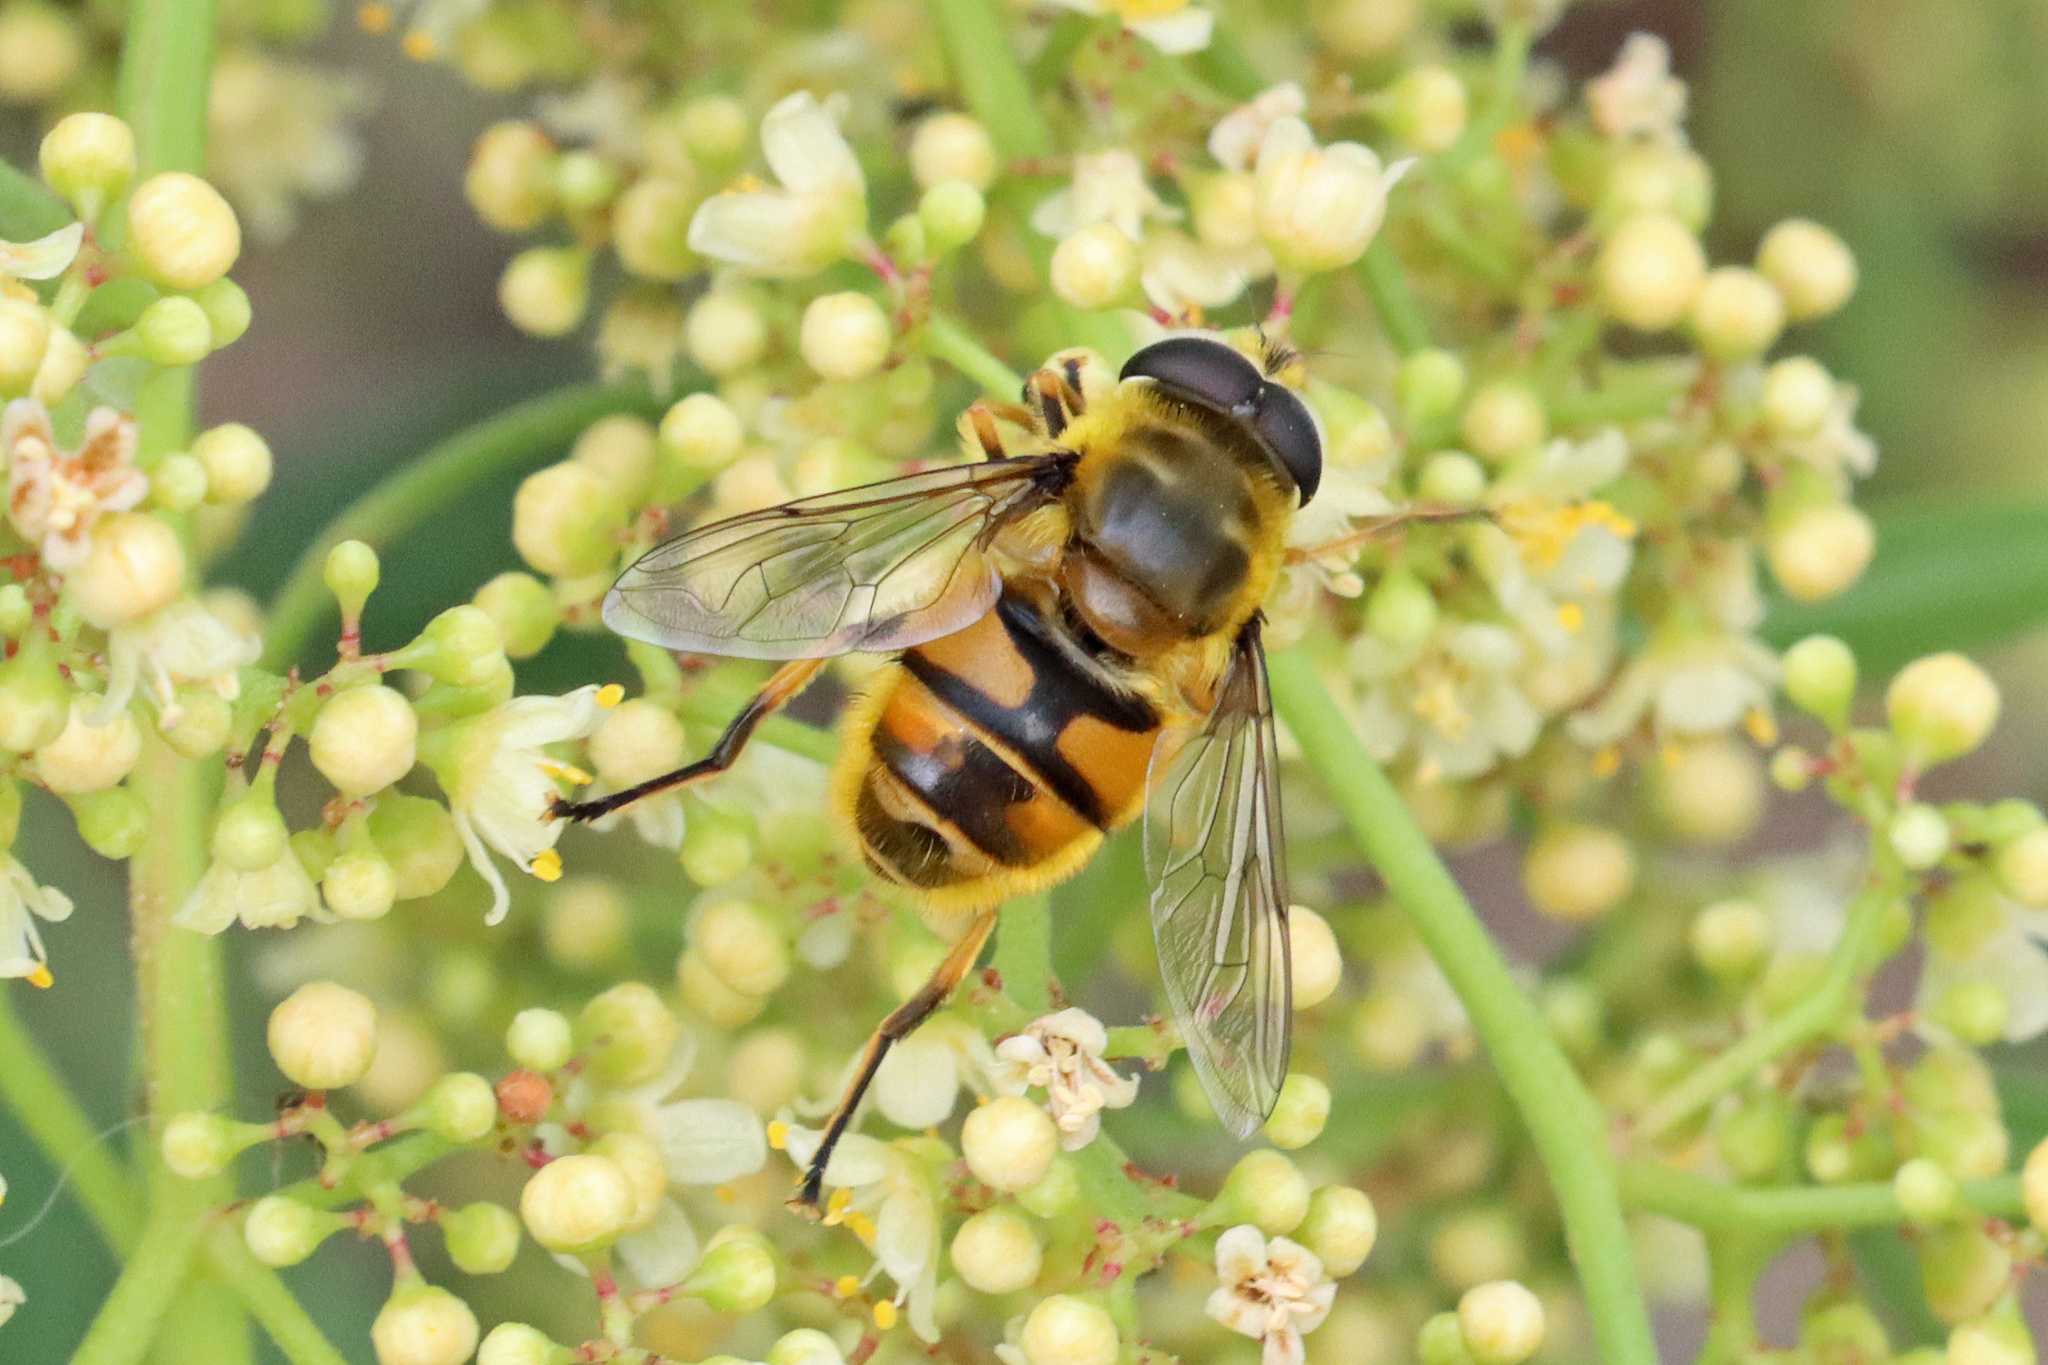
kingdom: Animalia
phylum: Arthropoda
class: Insecta
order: Diptera
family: Syrphidae
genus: Myathropa
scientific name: Myathropa florea
